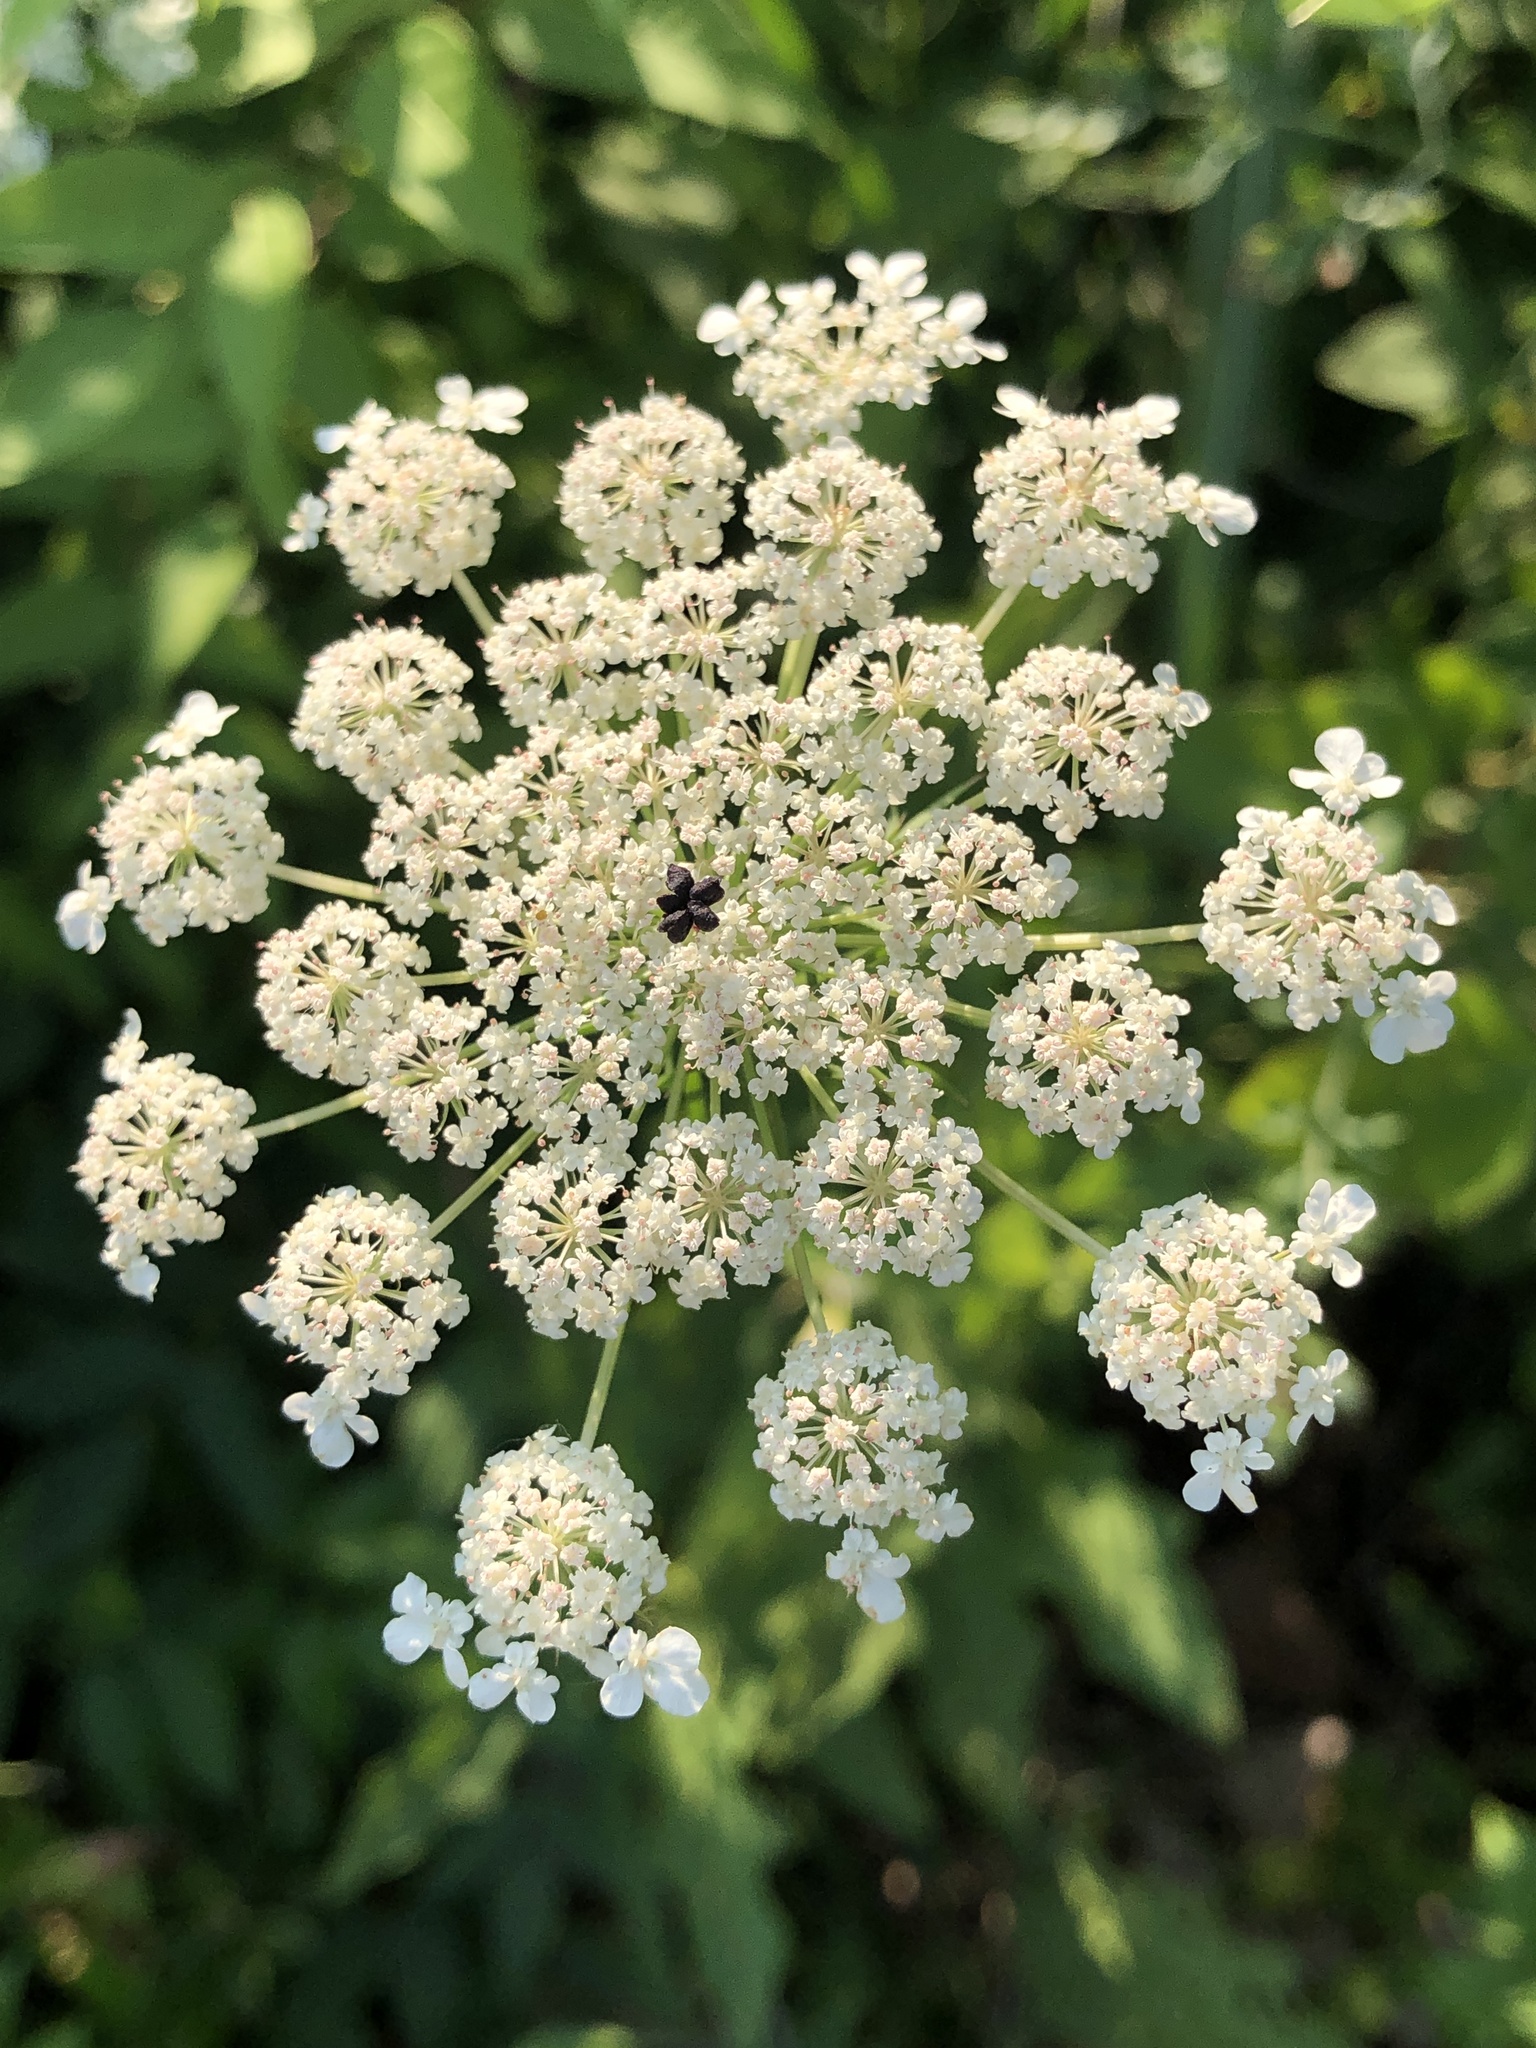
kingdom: Plantae
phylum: Tracheophyta
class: Magnoliopsida
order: Apiales
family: Apiaceae
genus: Daucus
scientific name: Daucus carota
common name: Wild carrot
